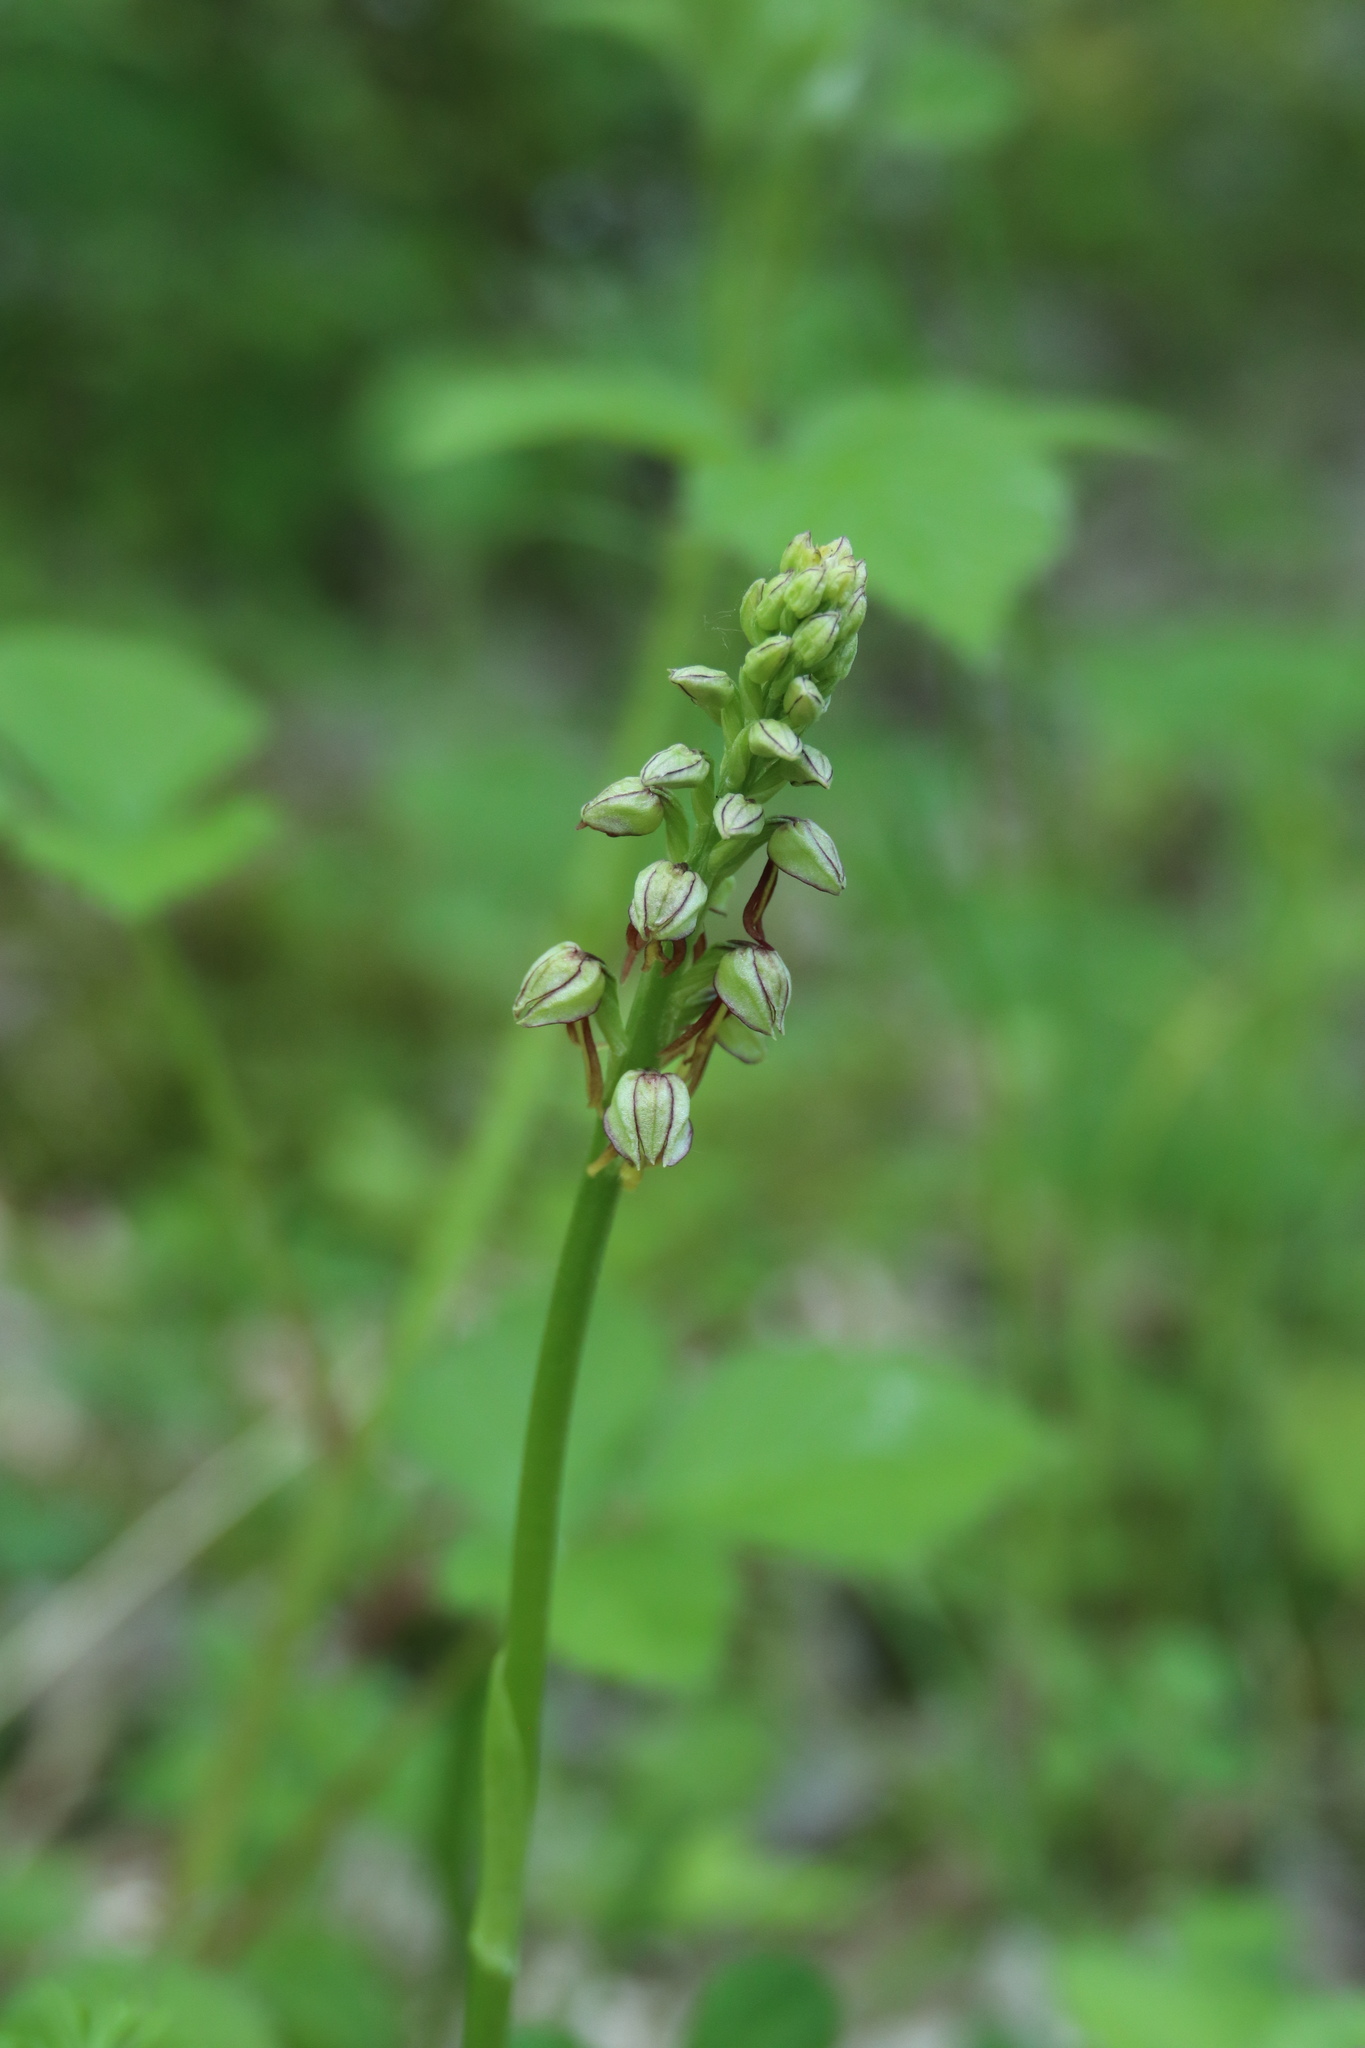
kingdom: Plantae
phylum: Tracheophyta
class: Liliopsida
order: Asparagales
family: Orchidaceae
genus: Orchis
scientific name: Orchis anthropophora
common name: Man orchid
